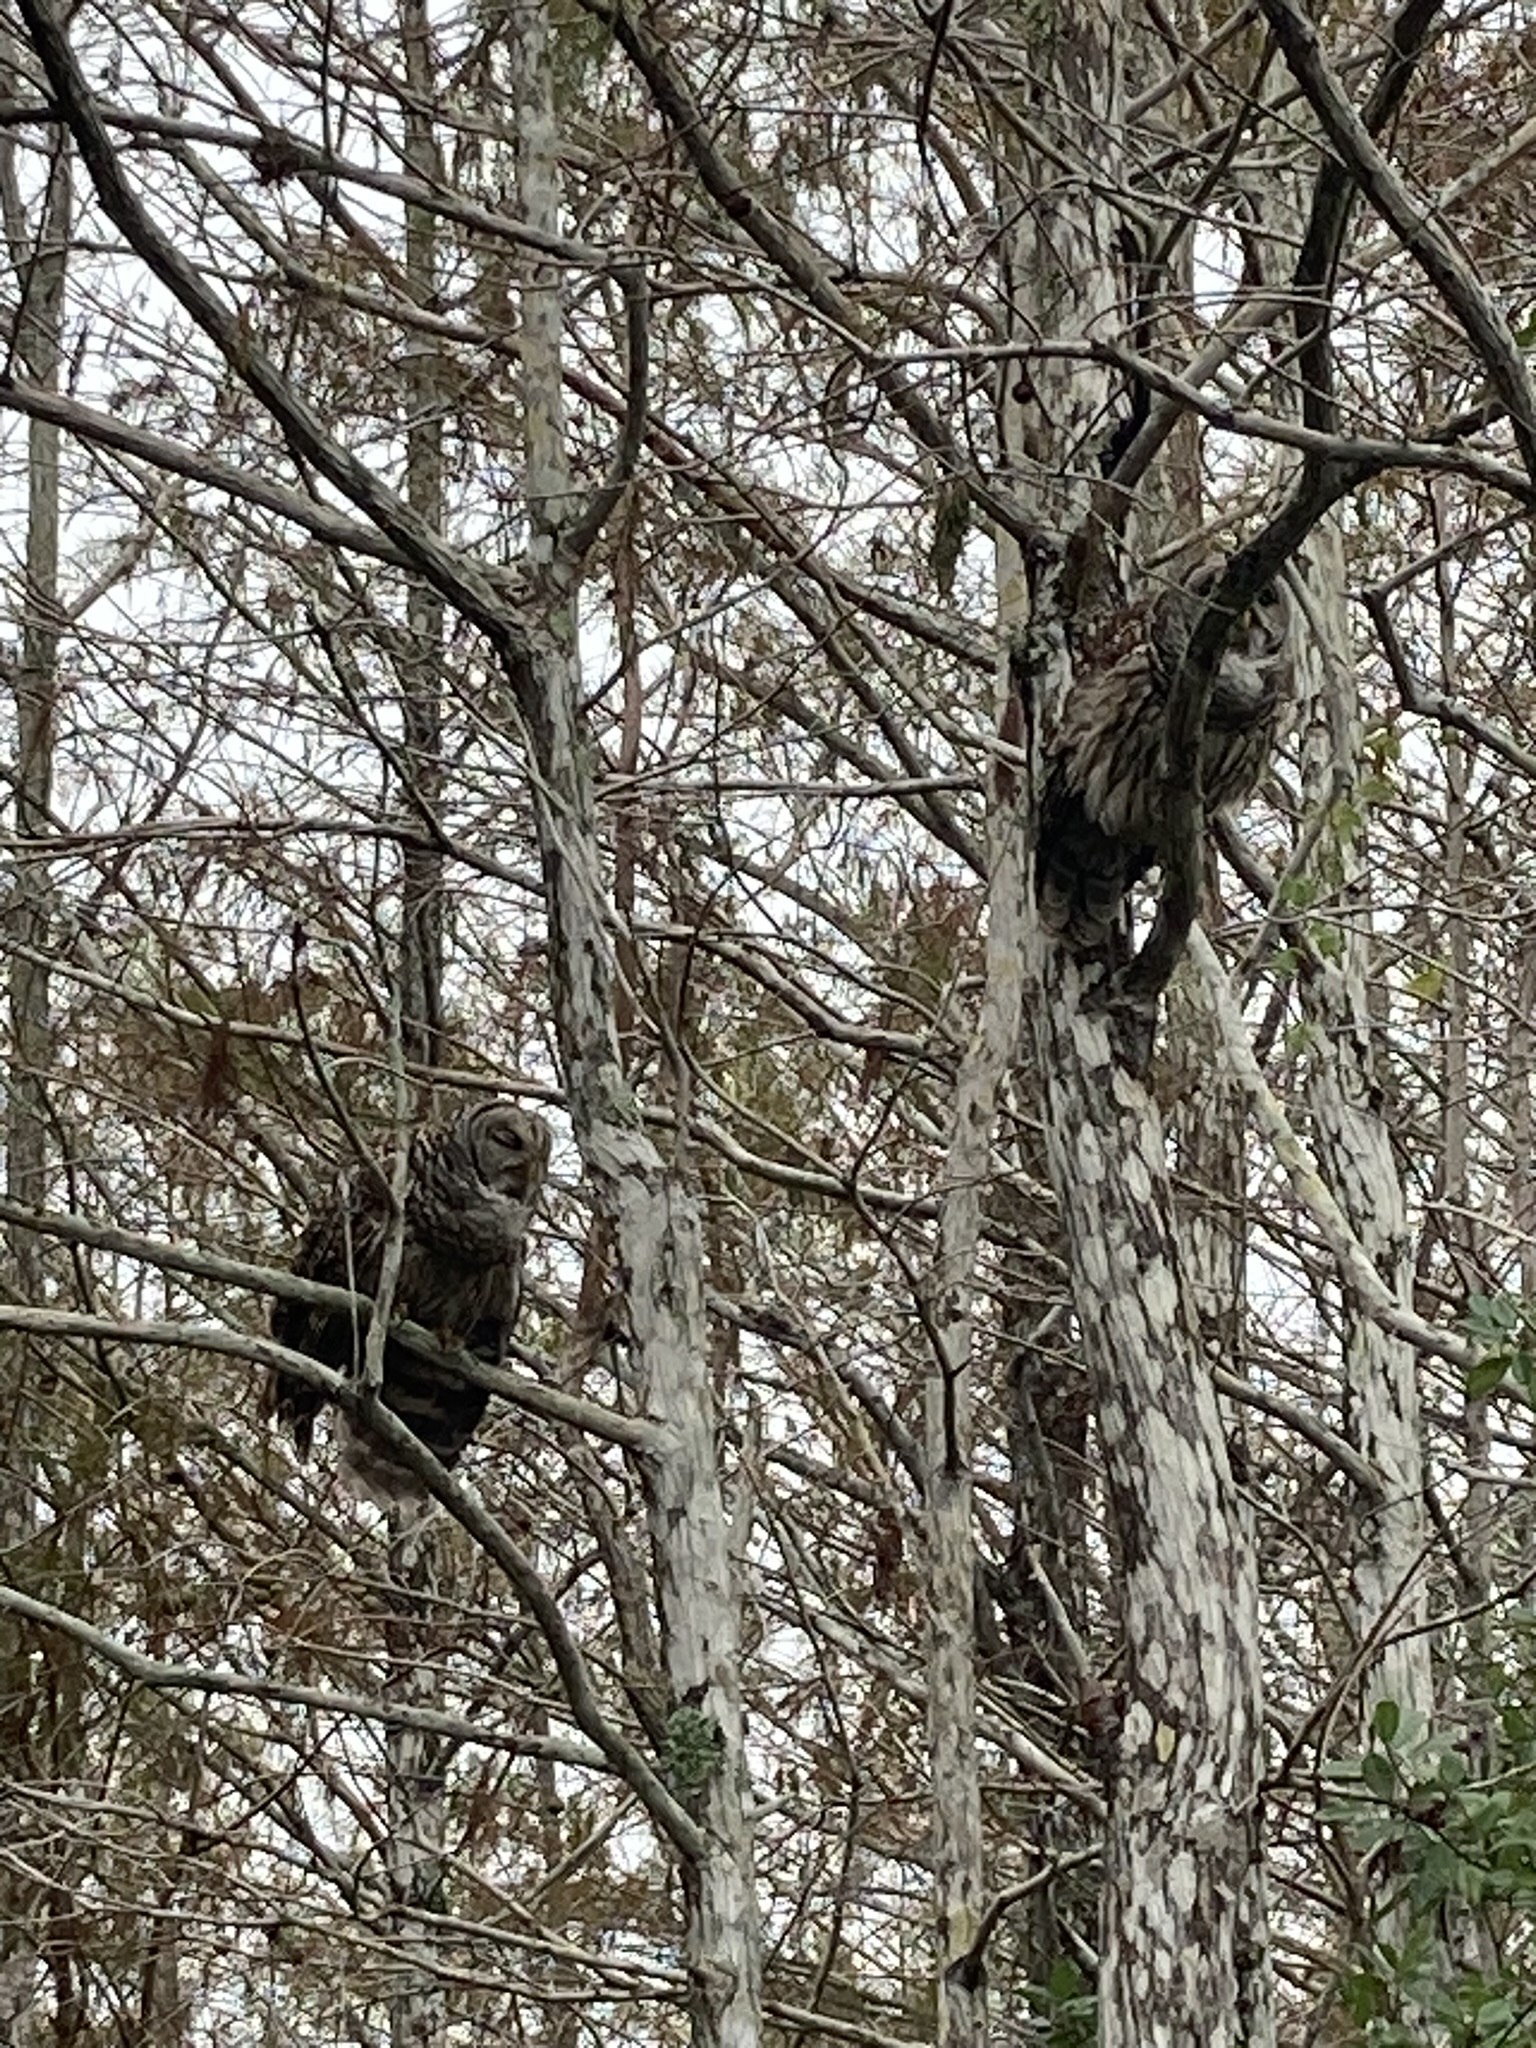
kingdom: Animalia
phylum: Chordata
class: Aves
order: Strigiformes
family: Strigidae
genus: Strix
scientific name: Strix varia
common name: Barred owl
